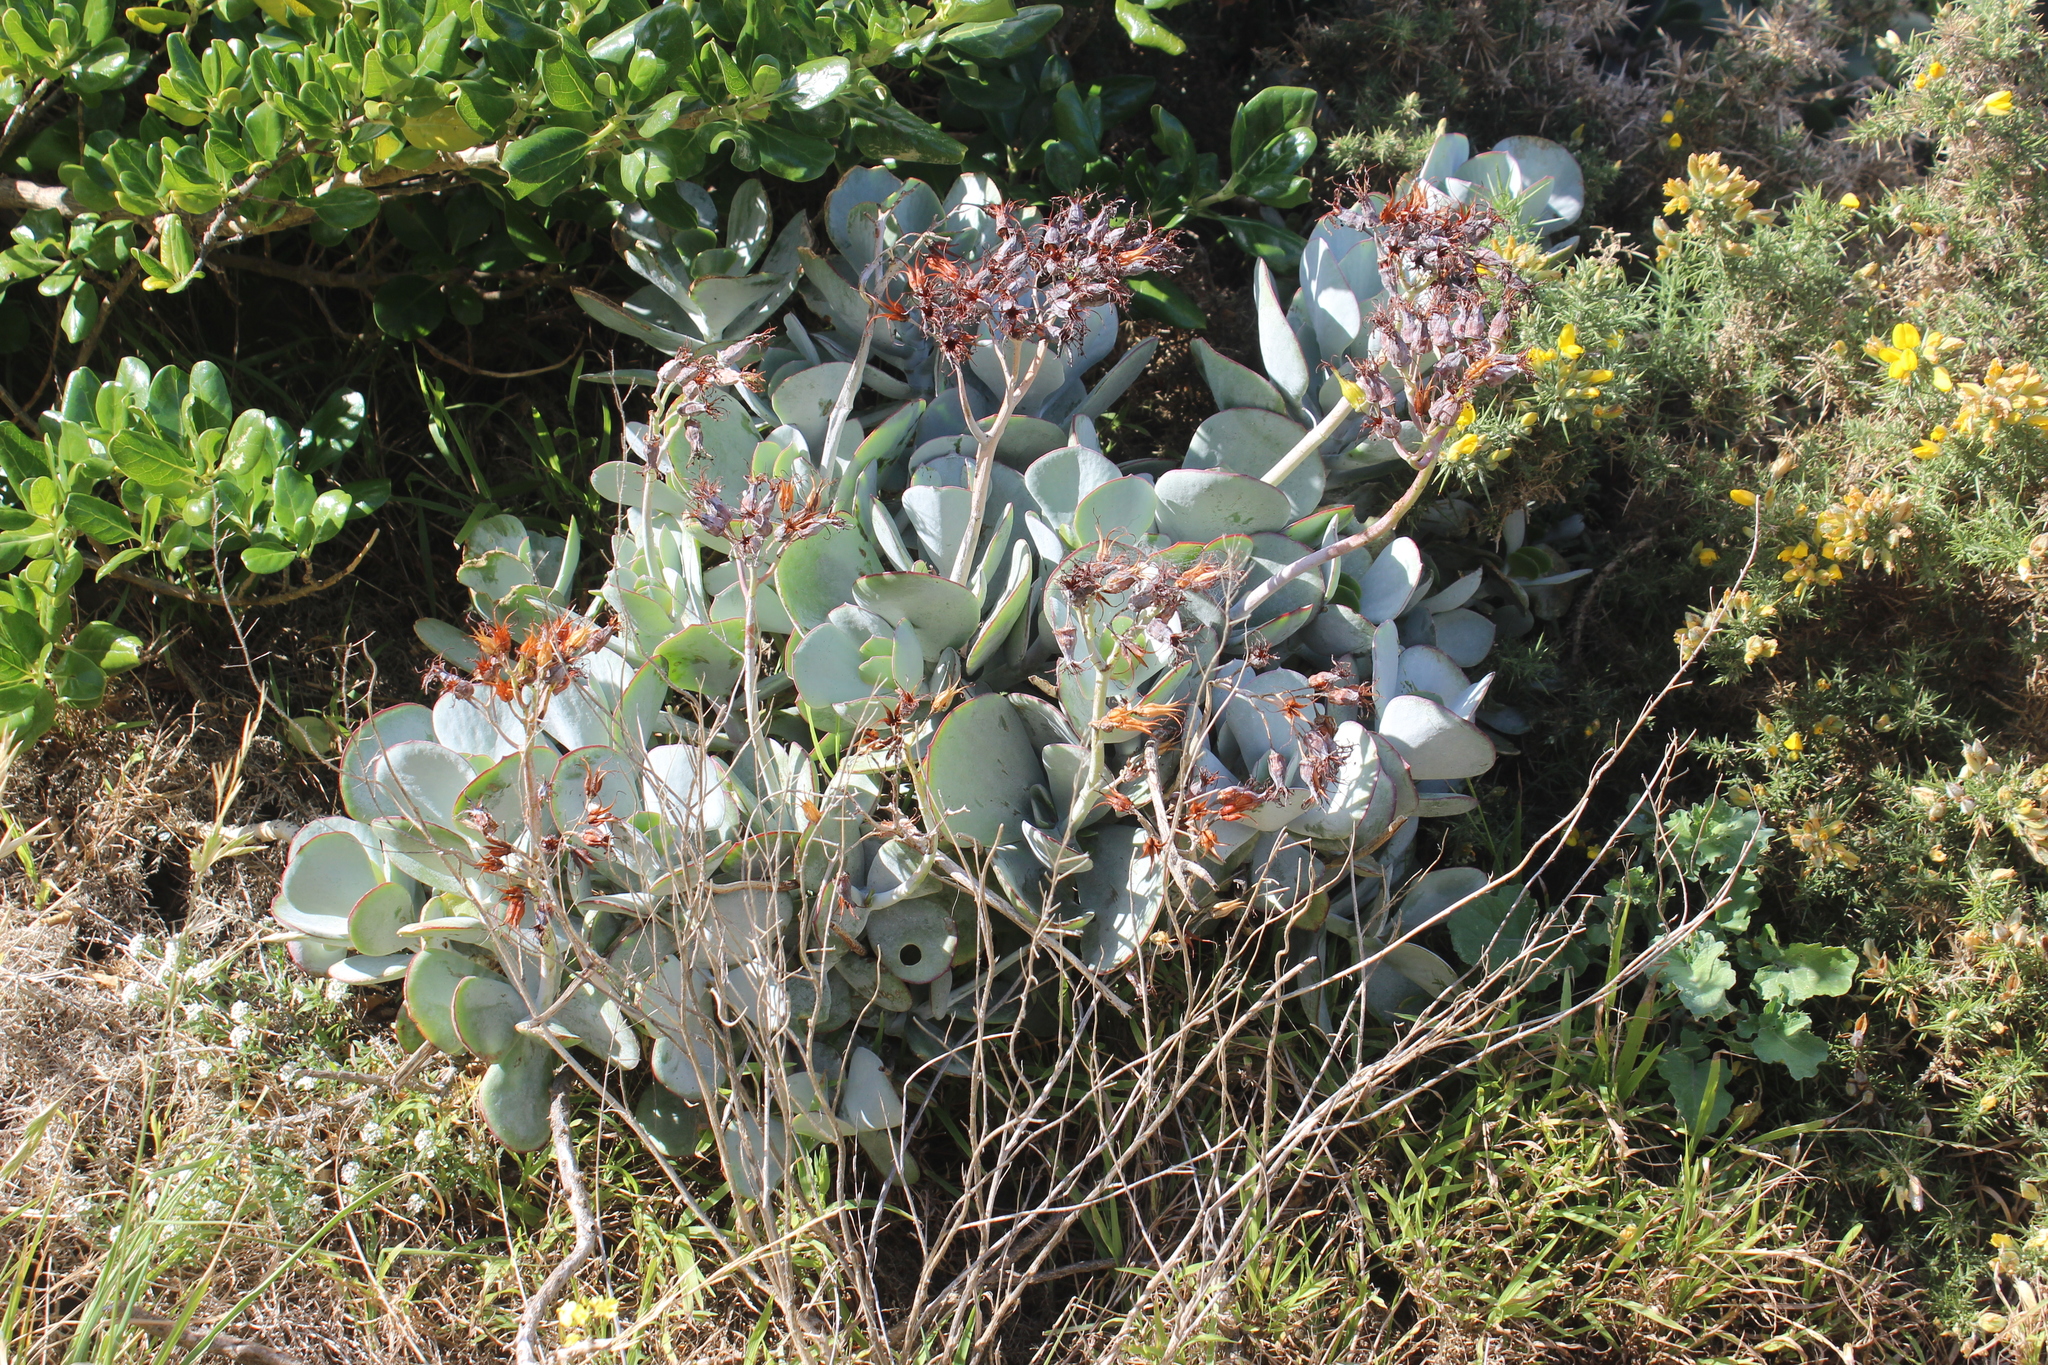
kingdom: Plantae
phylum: Tracheophyta
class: Magnoliopsida
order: Saxifragales
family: Crassulaceae
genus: Cotyledon
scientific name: Cotyledon orbiculata
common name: Pig's ear
